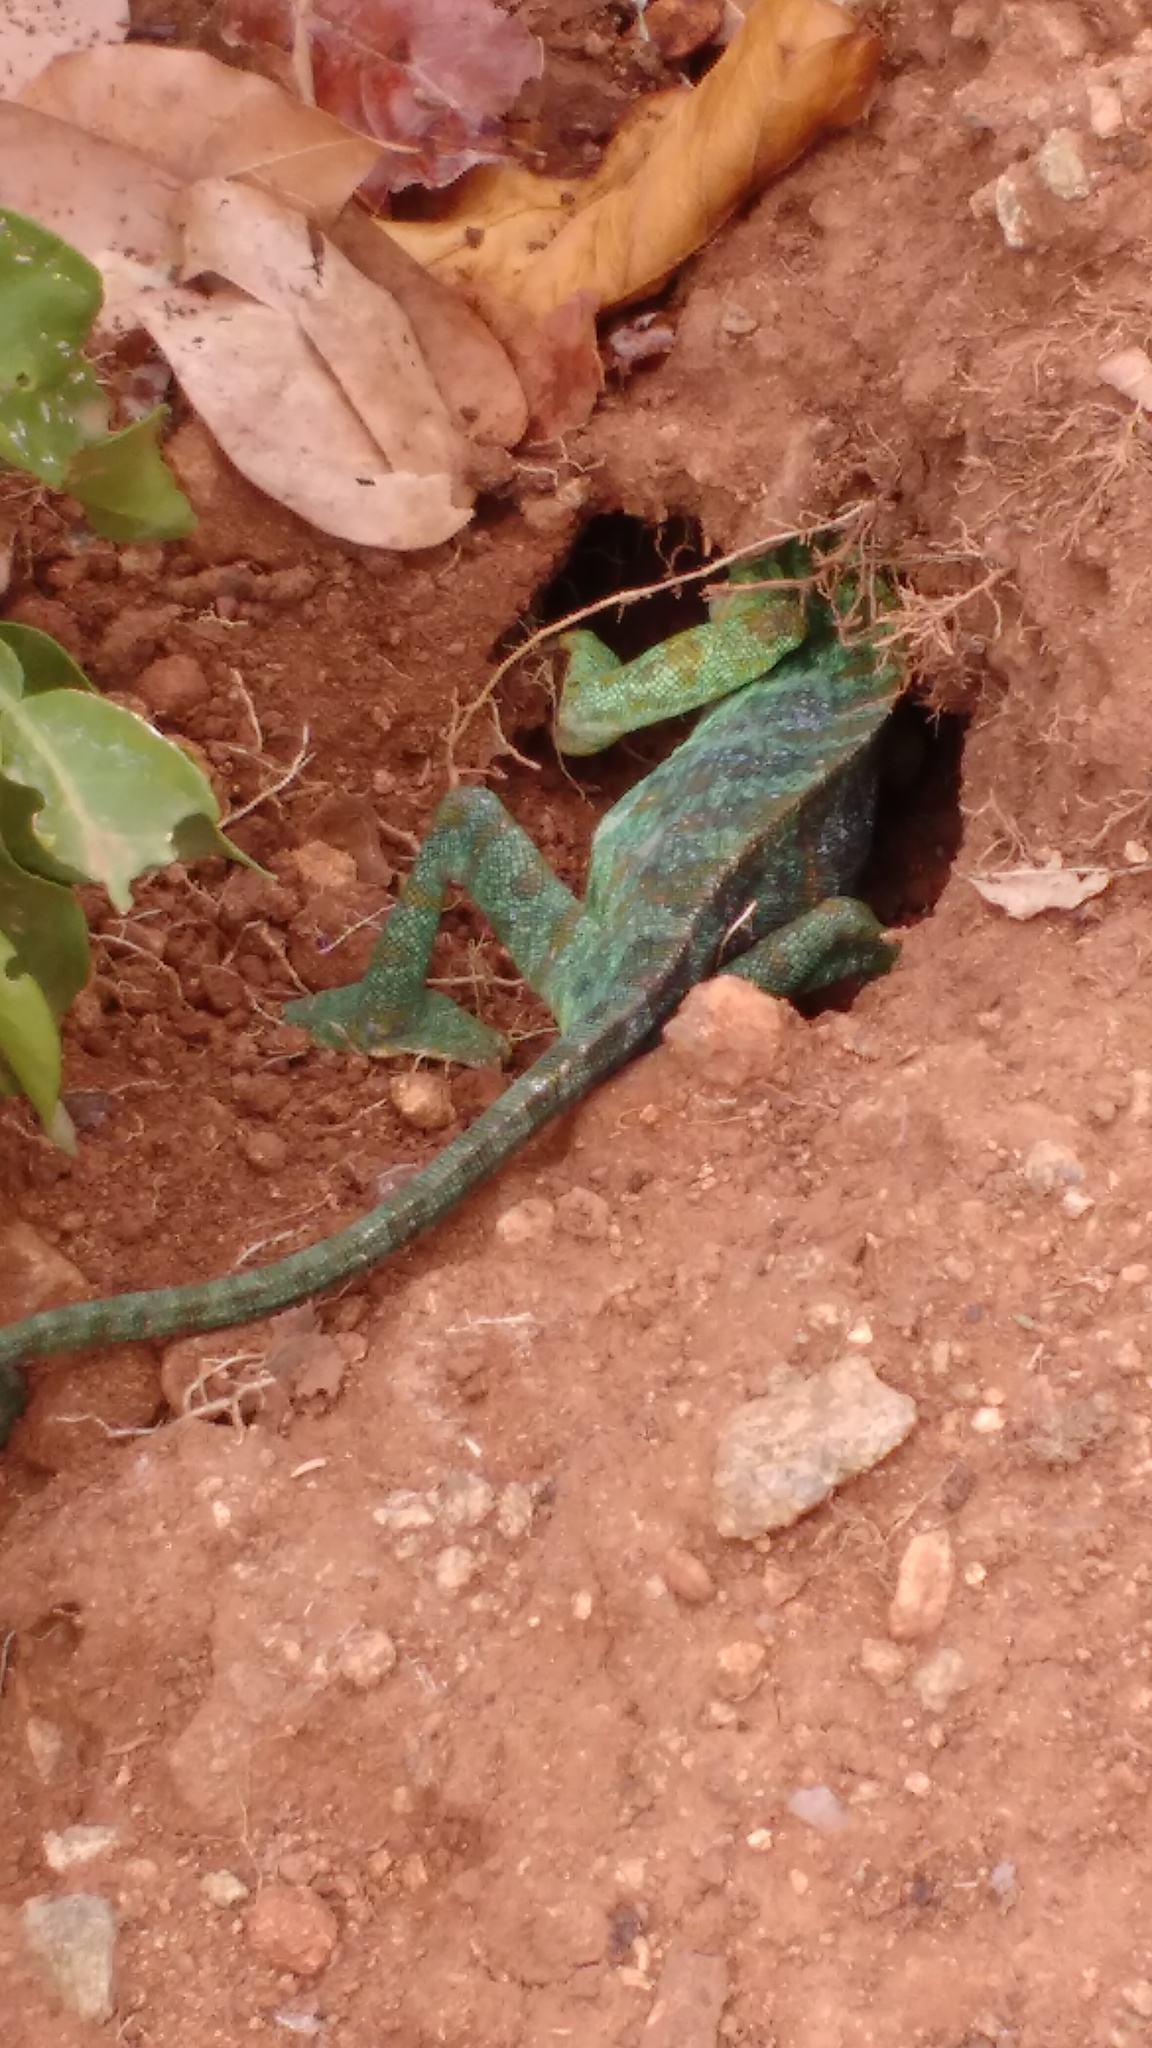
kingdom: Animalia
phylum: Chordata
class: Squamata
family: Chamaeleonidae
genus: Chamaeleo
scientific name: Chamaeleo zeylanicus
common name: Indian chameleon
